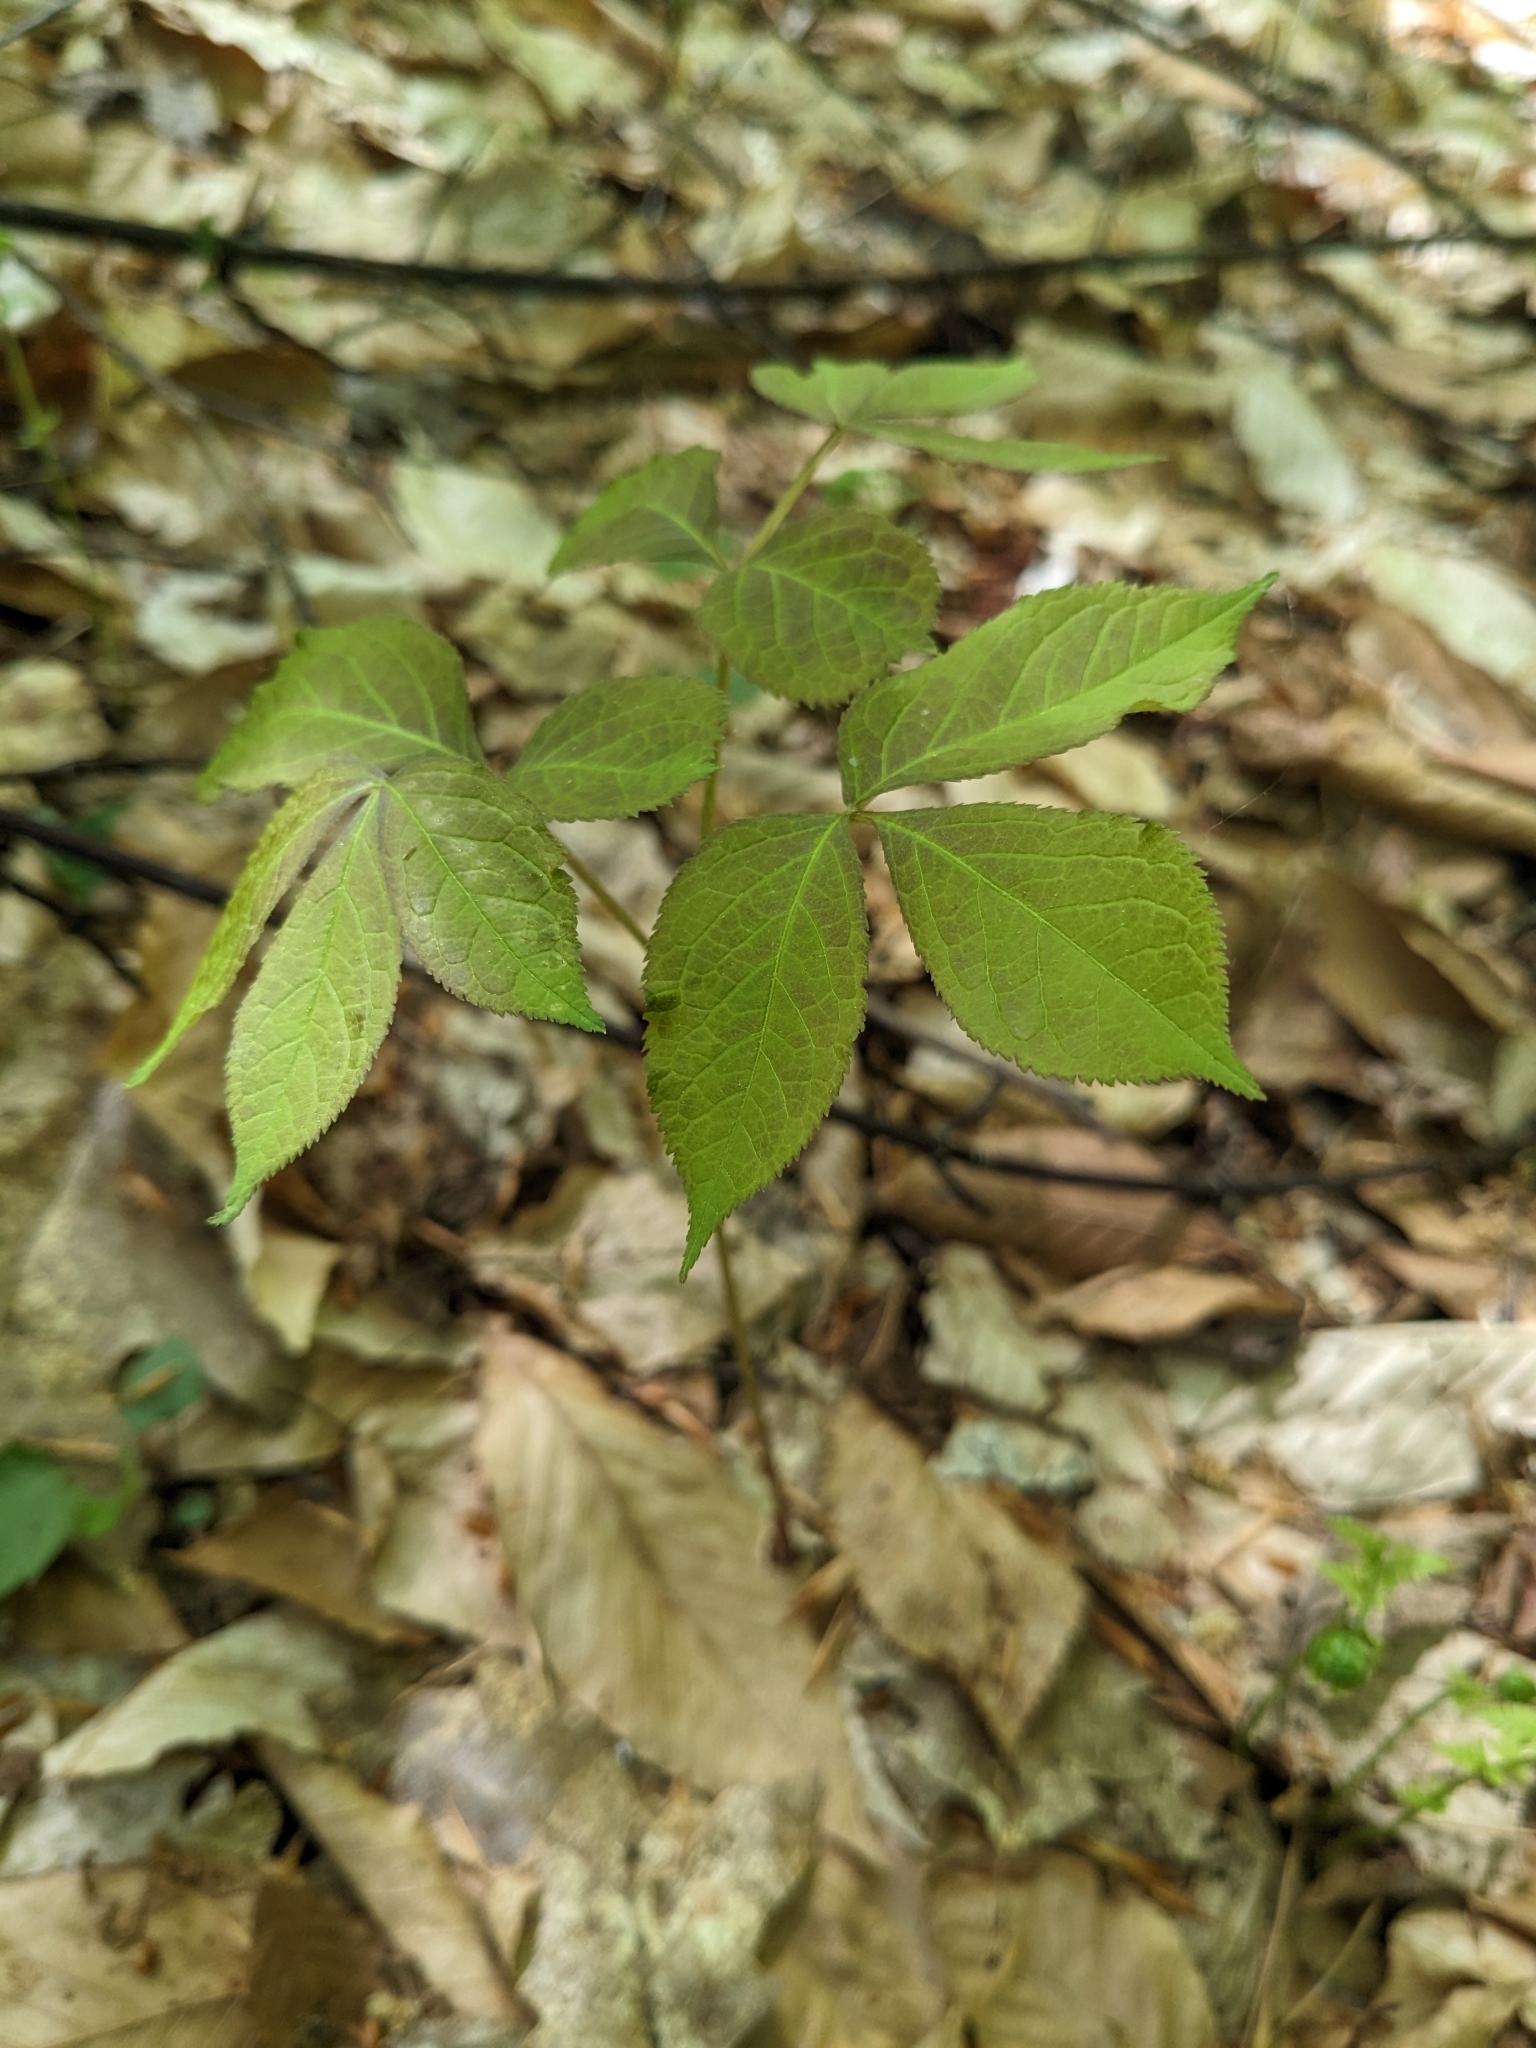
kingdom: Plantae
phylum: Tracheophyta
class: Magnoliopsida
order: Apiales
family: Araliaceae
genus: Aralia
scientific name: Aralia nudicaulis
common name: Wild sarsaparilla
